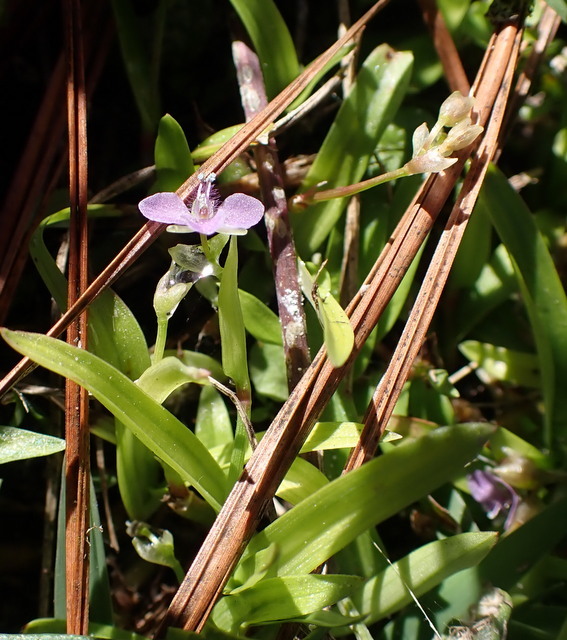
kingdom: Plantae
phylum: Tracheophyta
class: Liliopsida
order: Commelinales
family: Commelinaceae
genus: Murdannia
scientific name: Murdannia nudiflora
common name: Nakedstem dewflower
